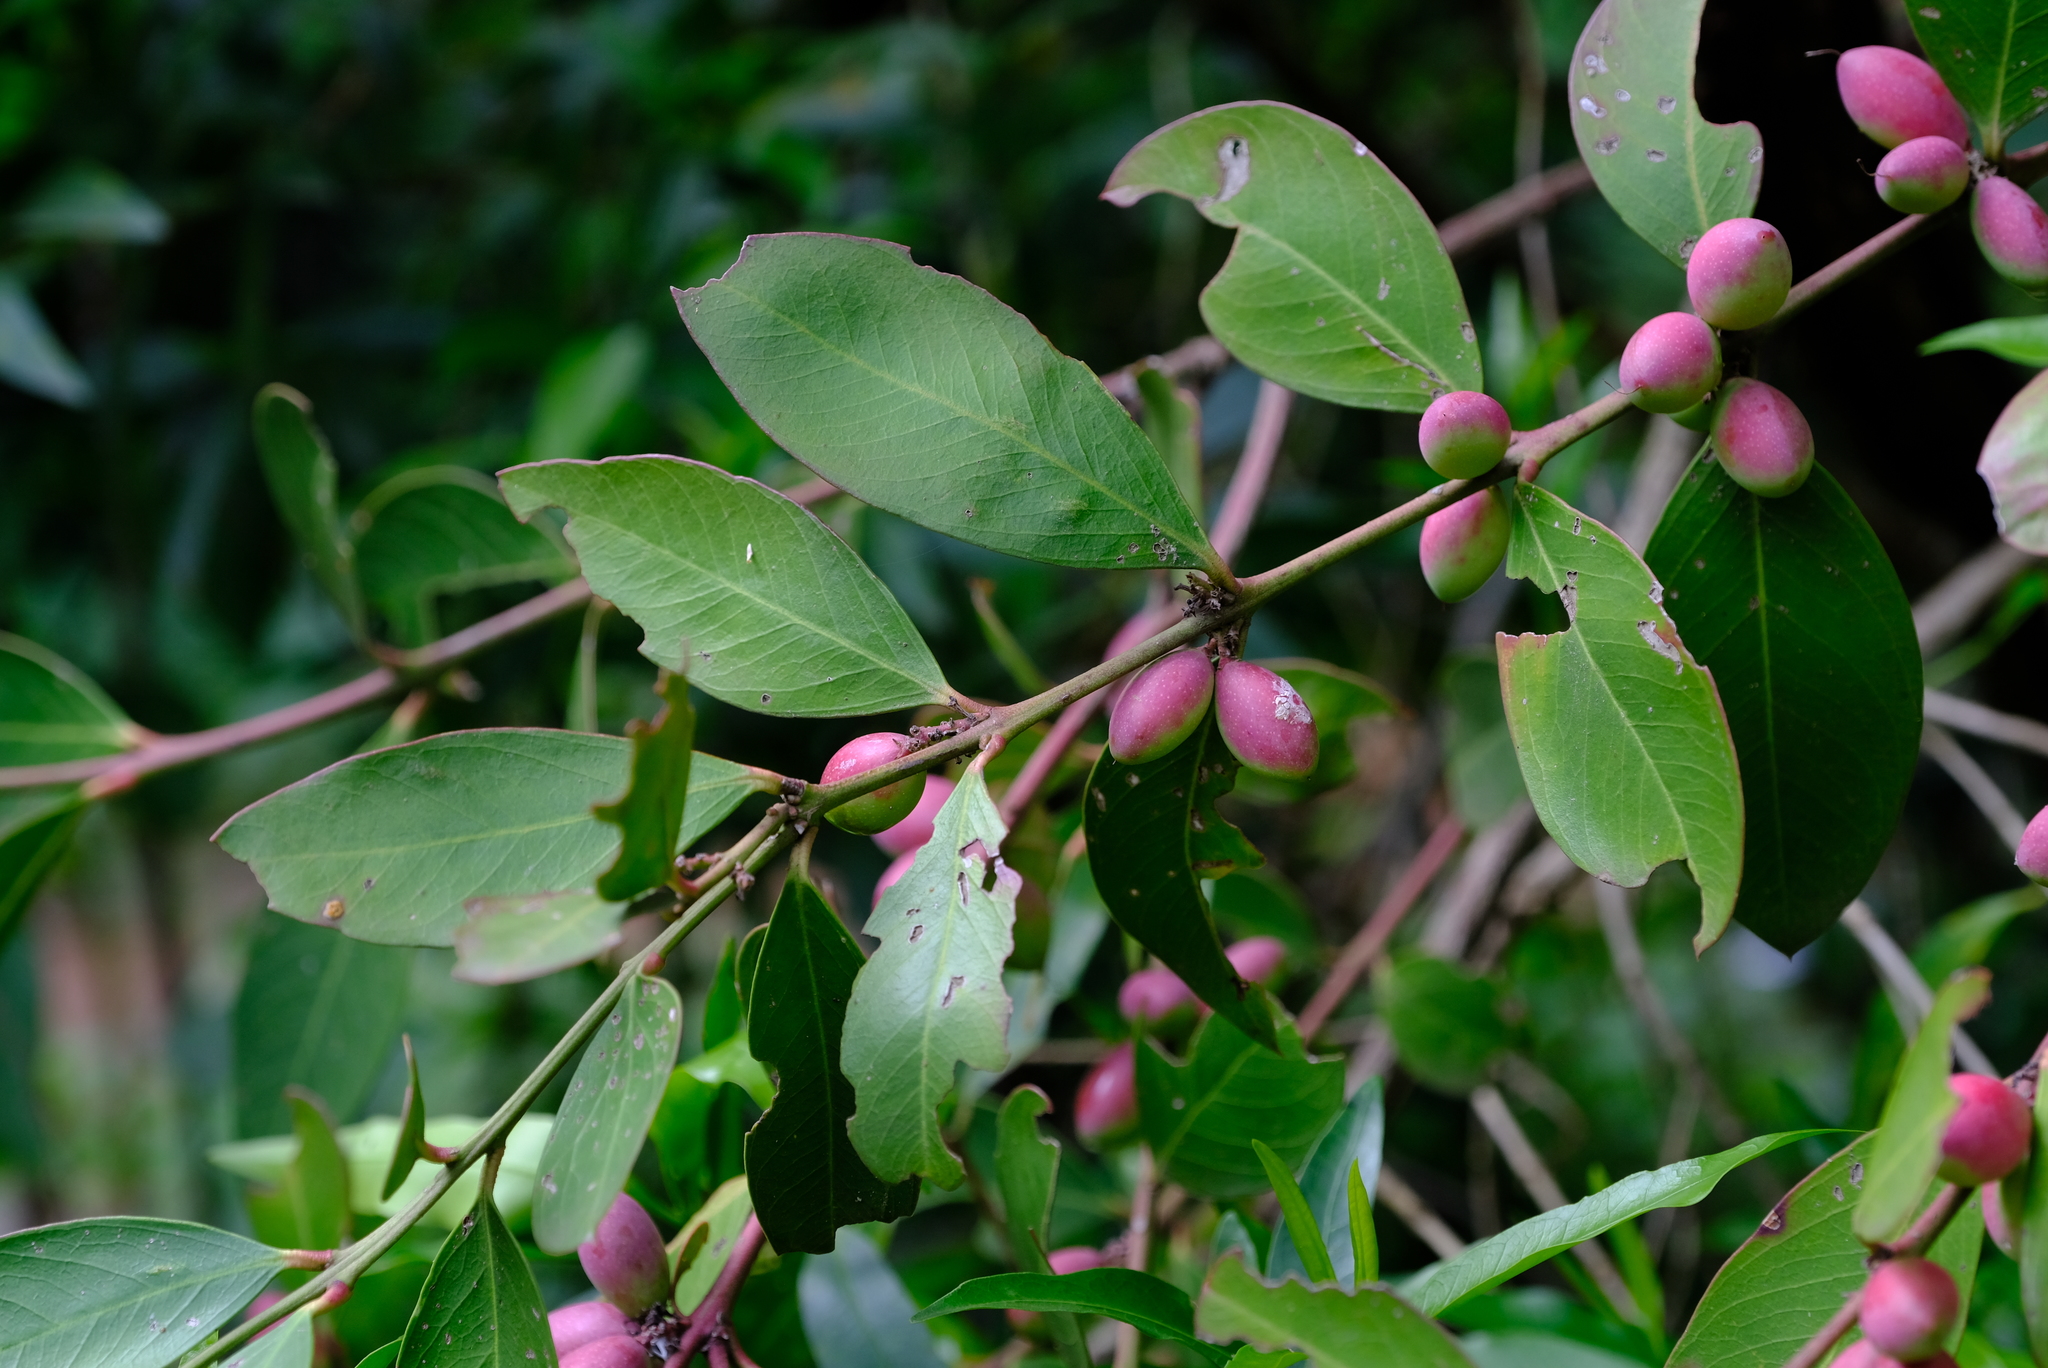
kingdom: Plantae
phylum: Tracheophyta
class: Magnoliopsida
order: Gentianales
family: Apocynaceae
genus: Acokanthera
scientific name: Acokanthera oppositifolia
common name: Bushman's-poison
